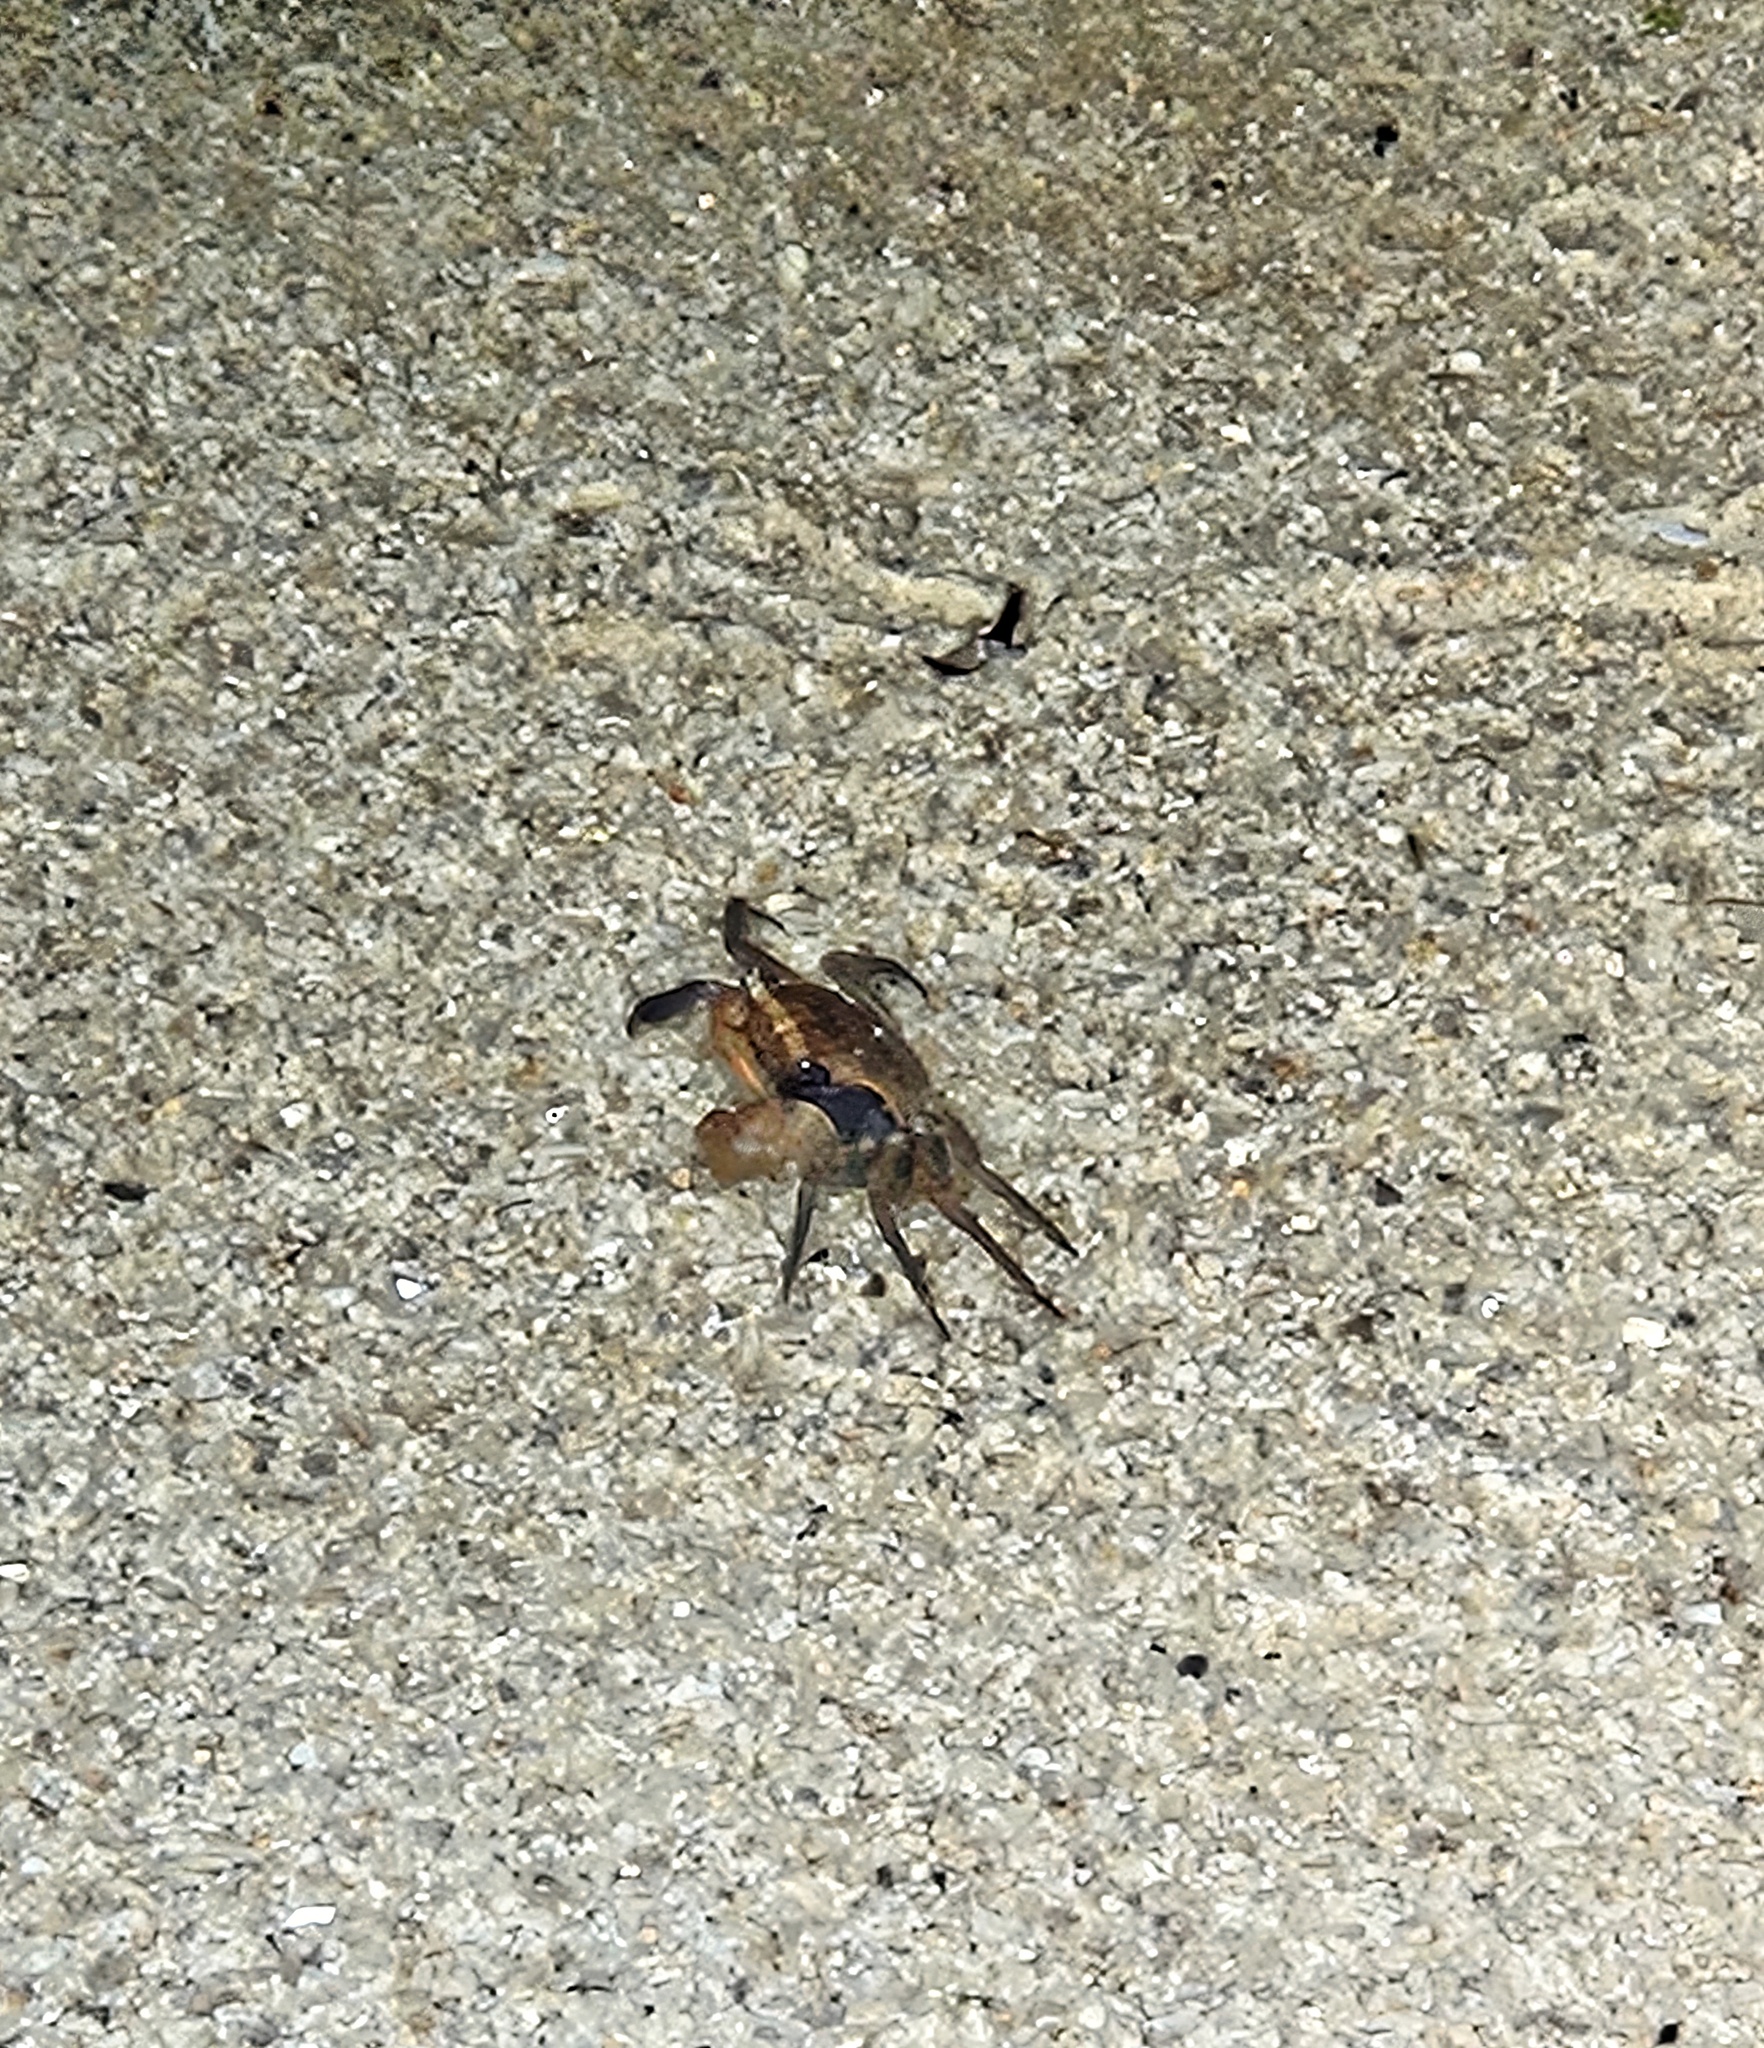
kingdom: Animalia
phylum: Arthropoda
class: Malacostraca
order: Decapoda
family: Sesarmidae
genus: Armases
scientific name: Armases cinereum
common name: Squareback marsh crab
